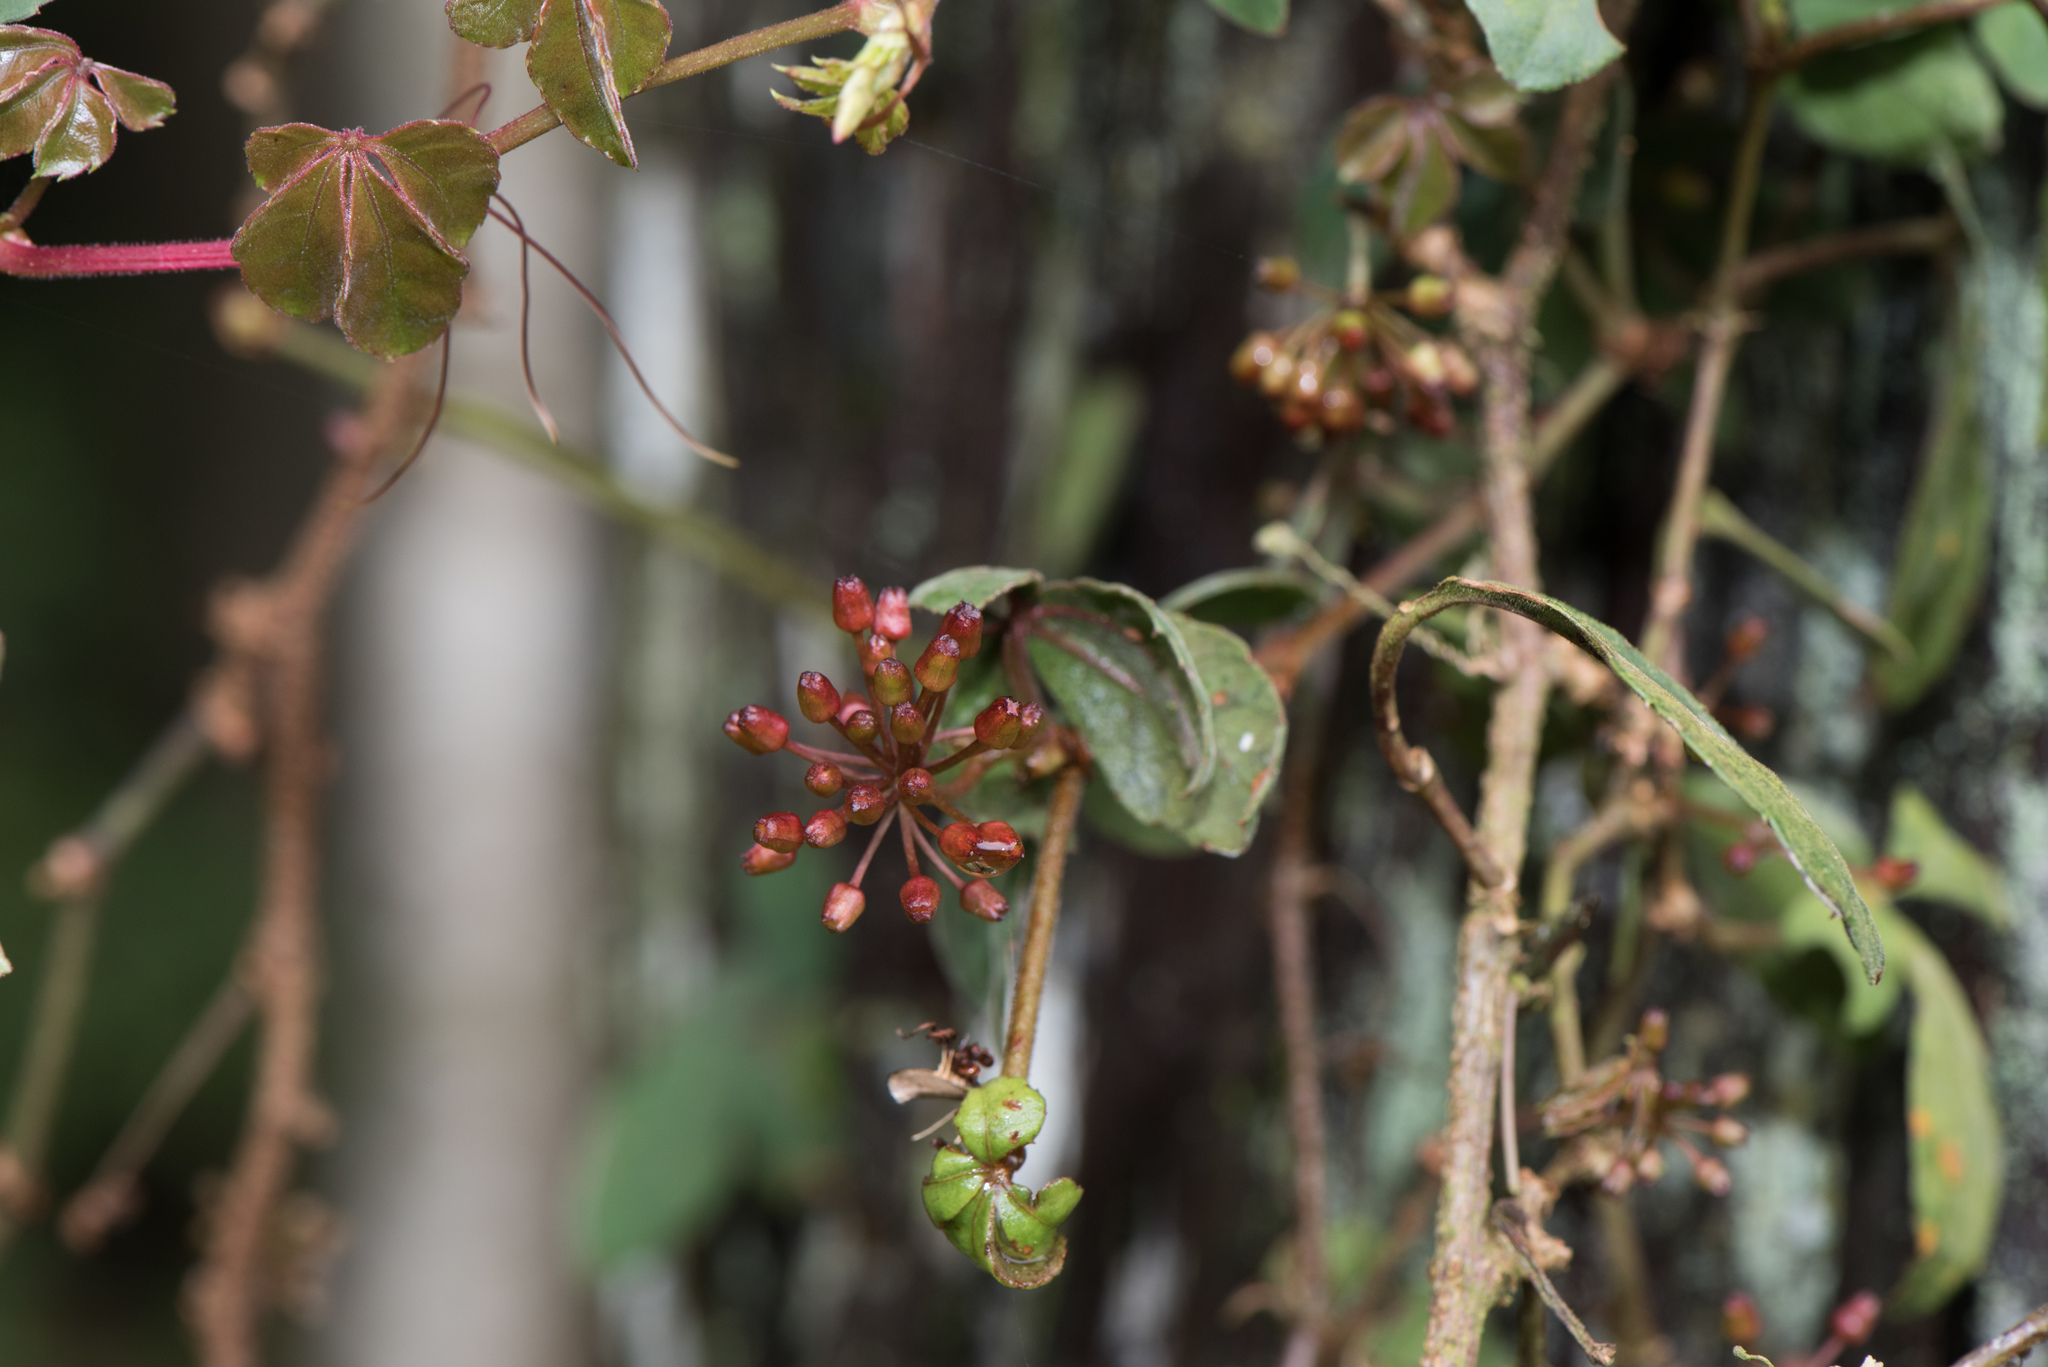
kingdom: Plantae
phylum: Tracheophyta
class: Magnoliopsida
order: Vitales
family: Vitaceae
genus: Tetrastigma
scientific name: Tetrastigma obtectum
